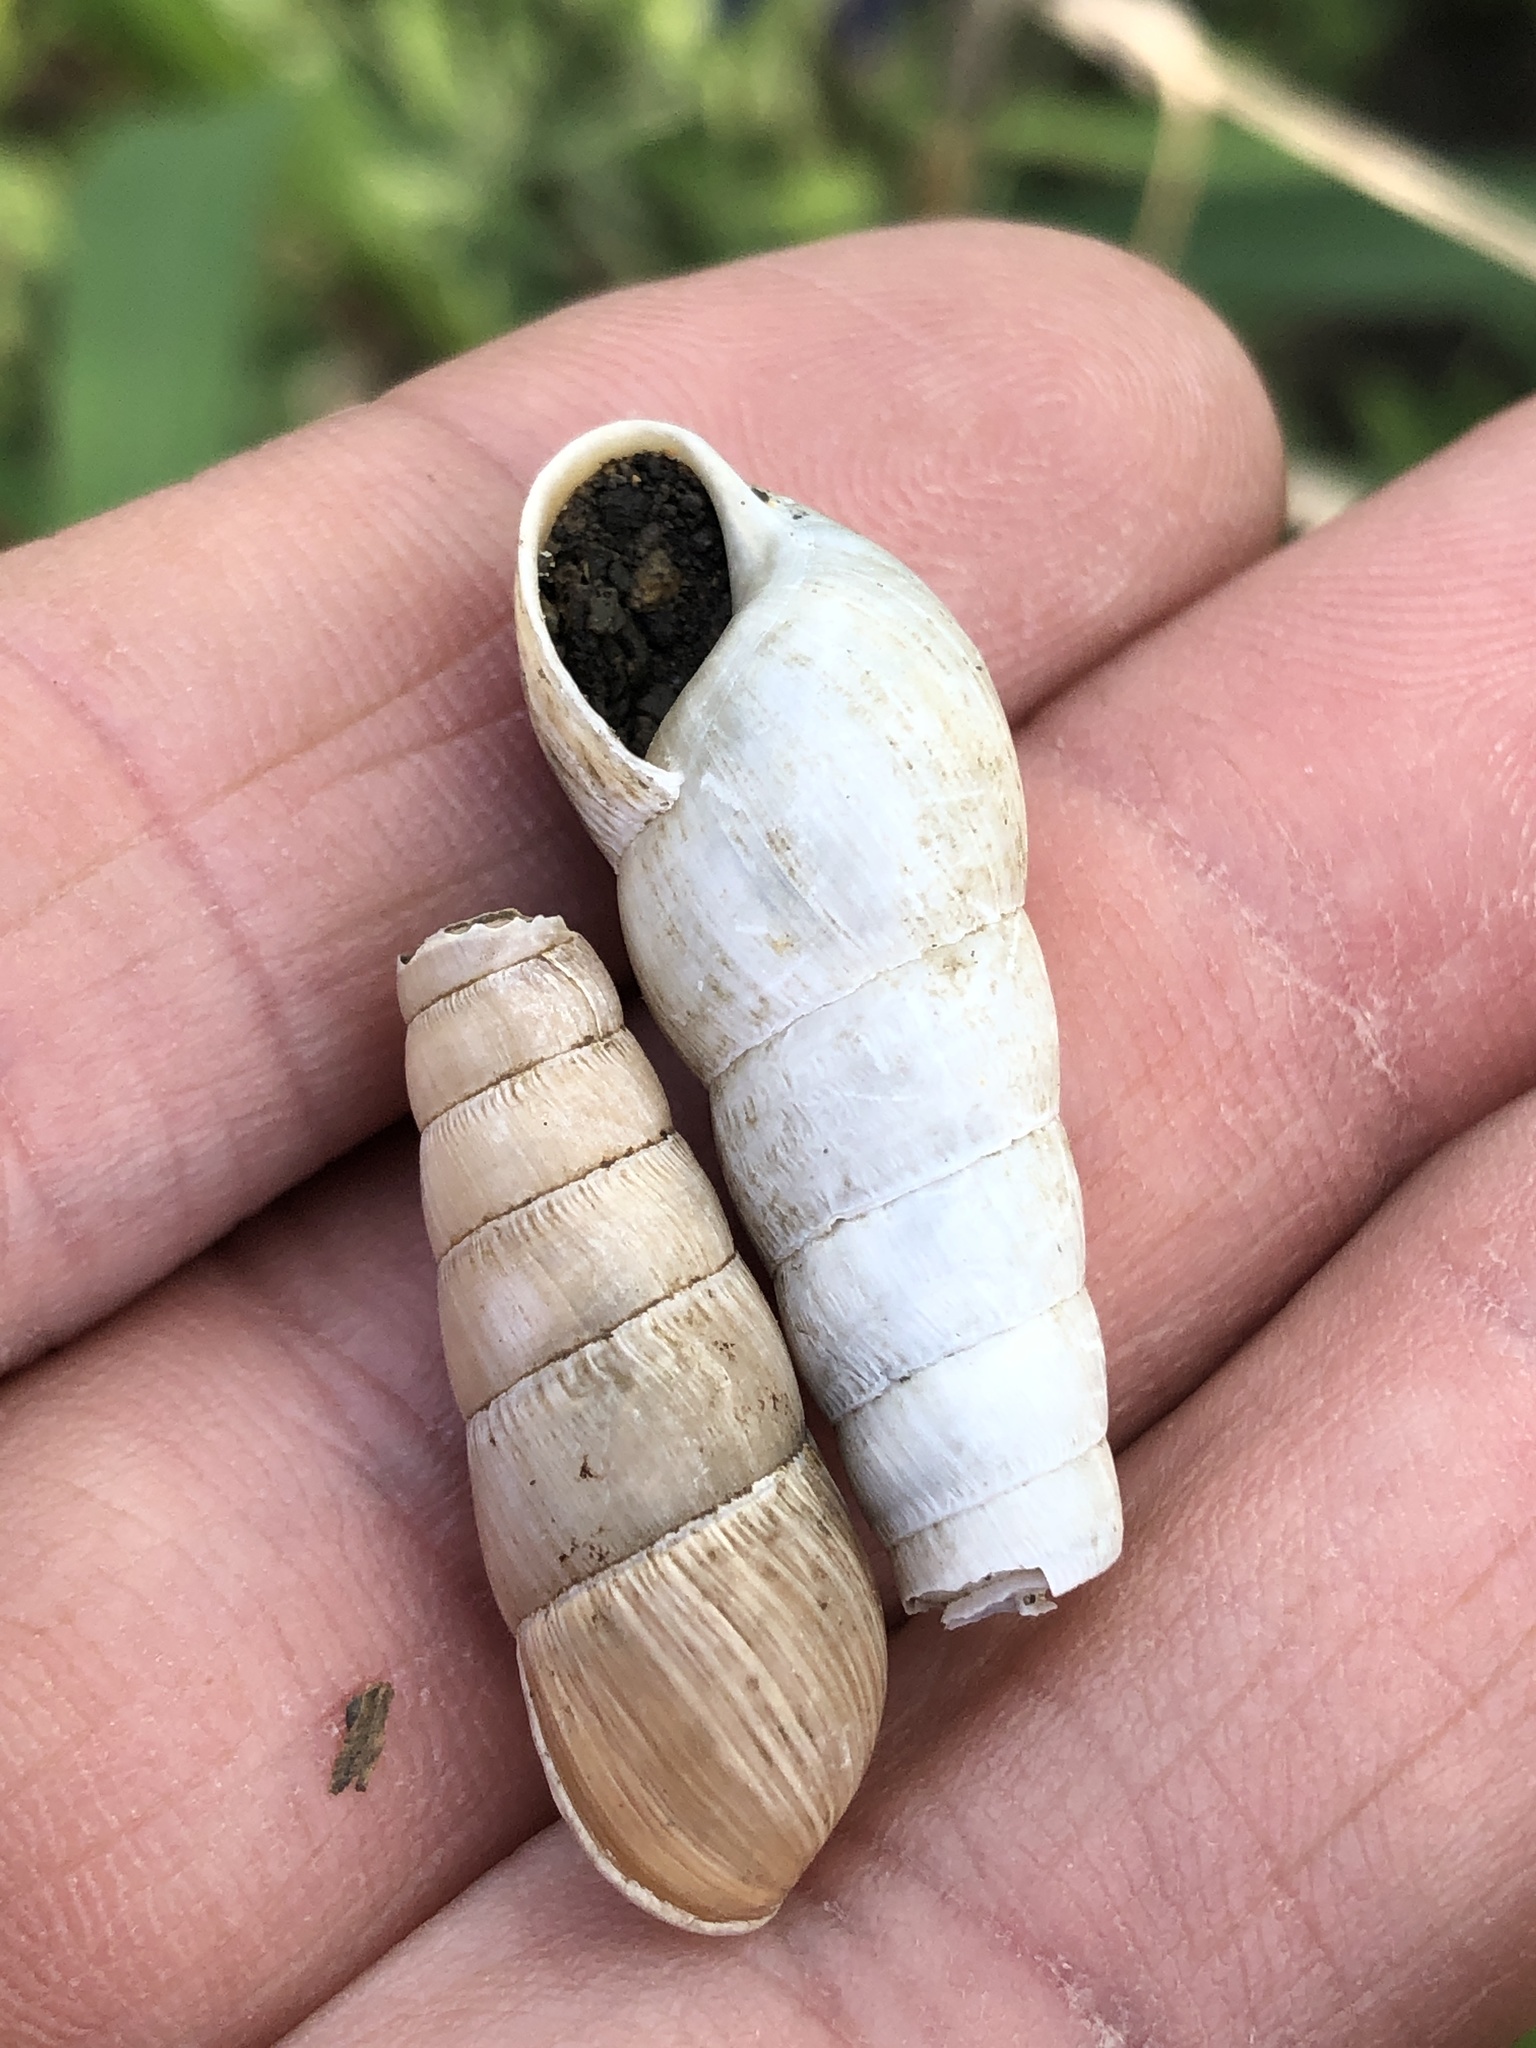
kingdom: Animalia
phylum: Mollusca
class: Gastropoda
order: Stylommatophora
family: Achatinidae
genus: Rumina
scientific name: Rumina decollata
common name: Decollate snail
